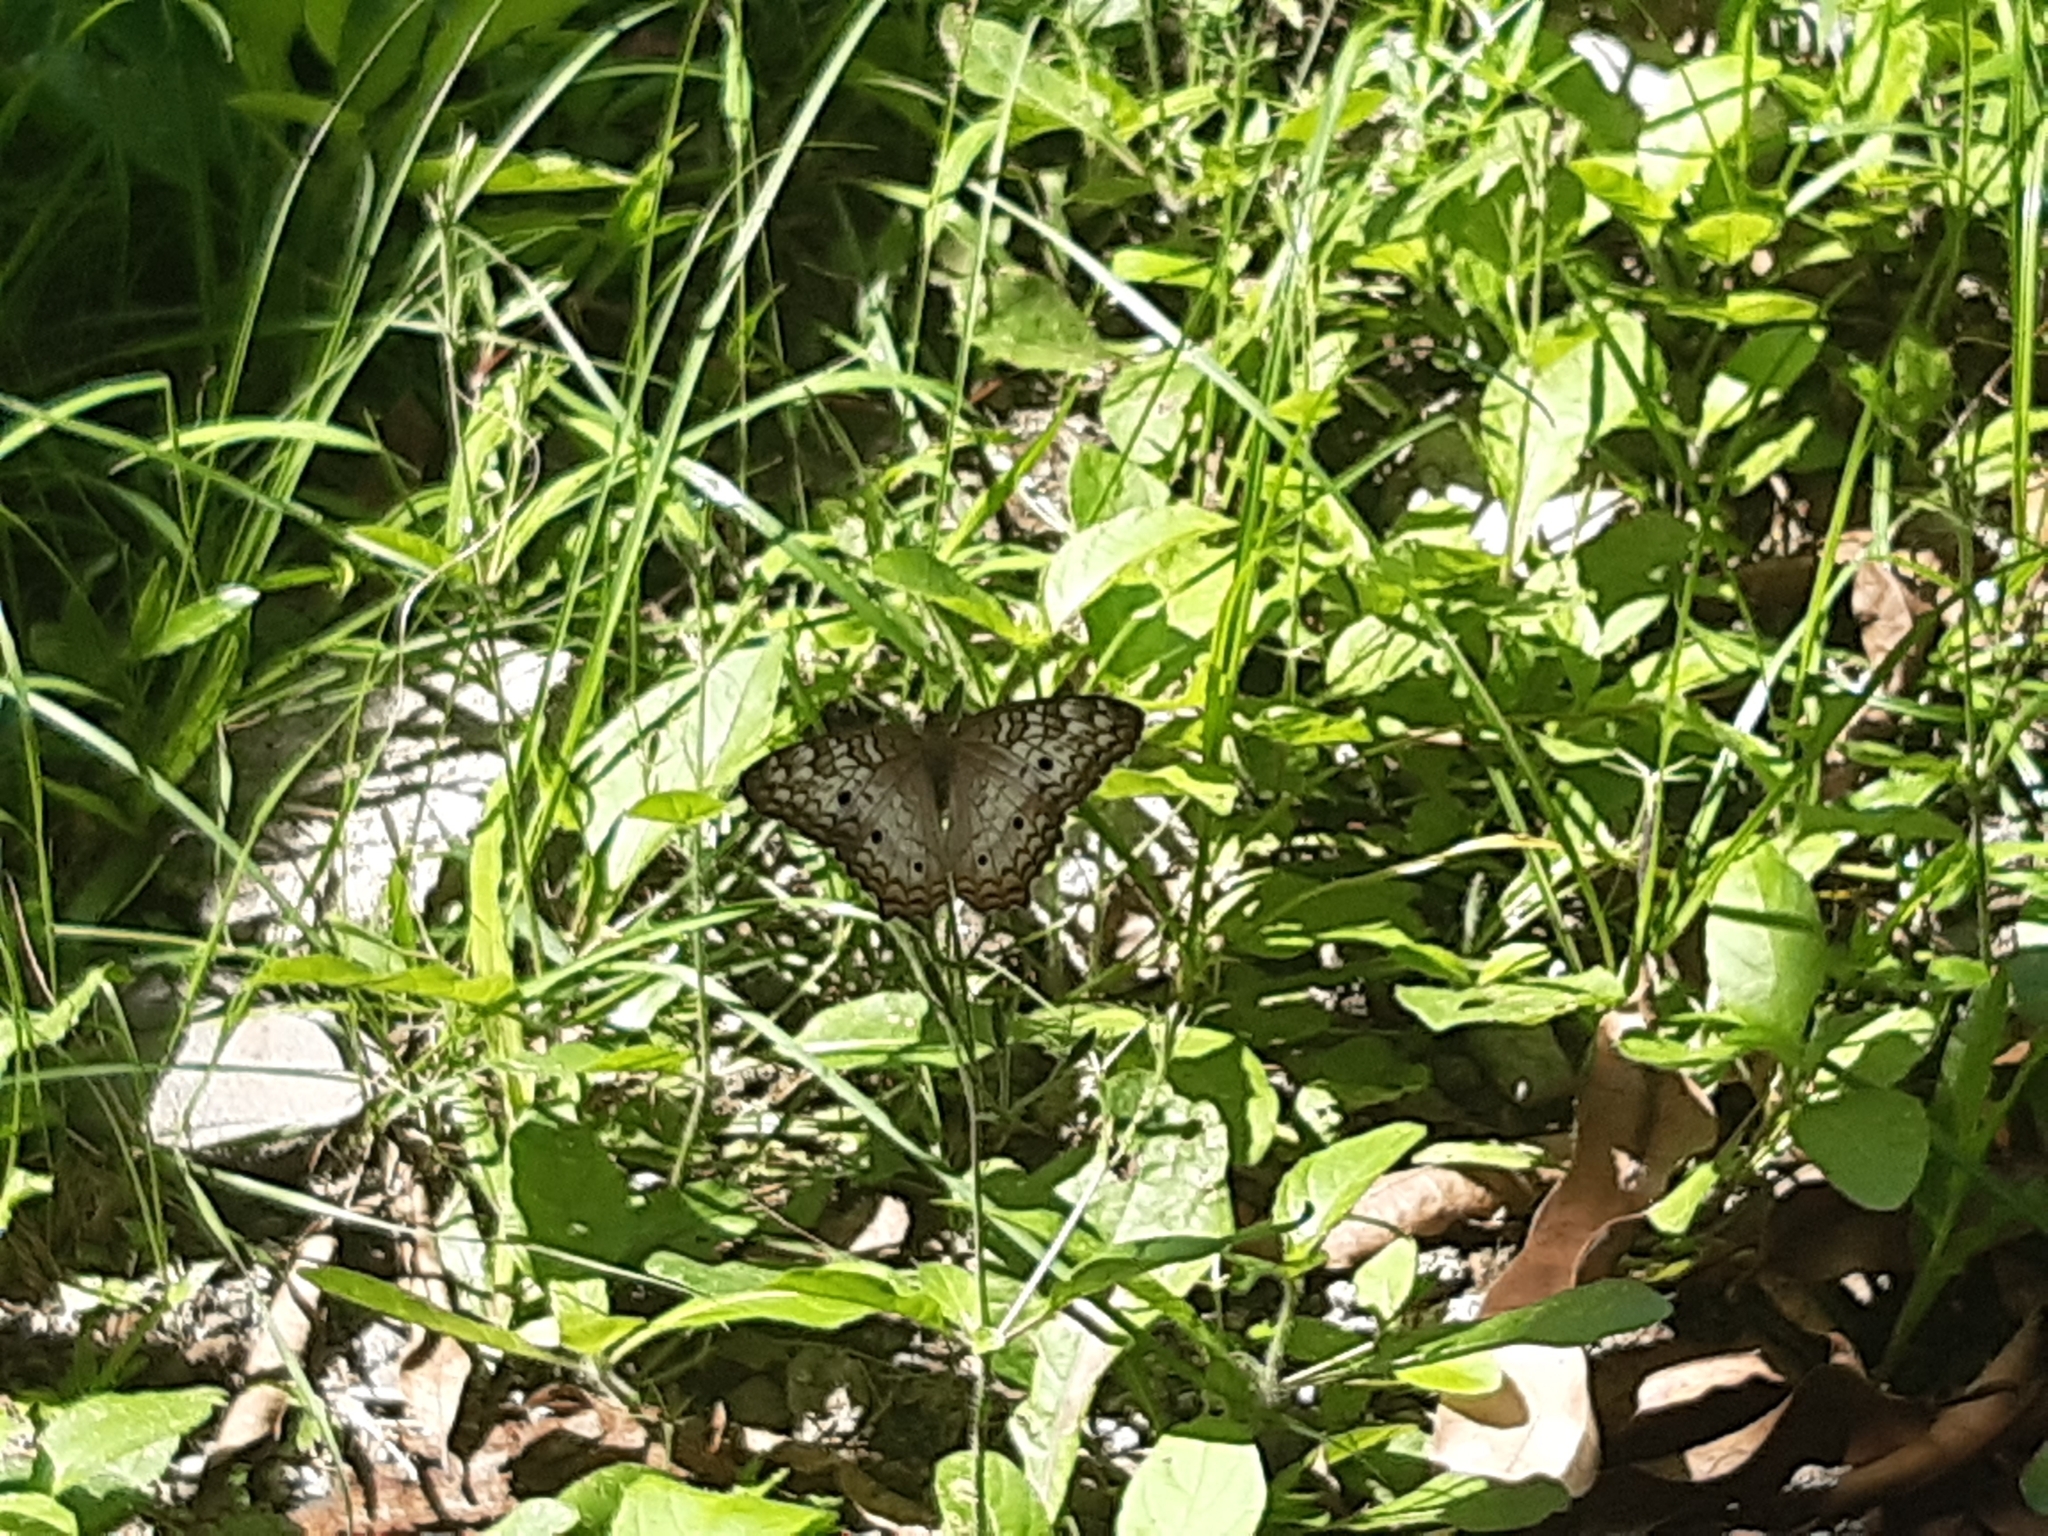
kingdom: Animalia
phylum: Arthropoda
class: Insecta
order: Lepidoptera
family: Nymphalidae
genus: Anartia
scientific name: Anartia jatrophae
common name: White peacock
